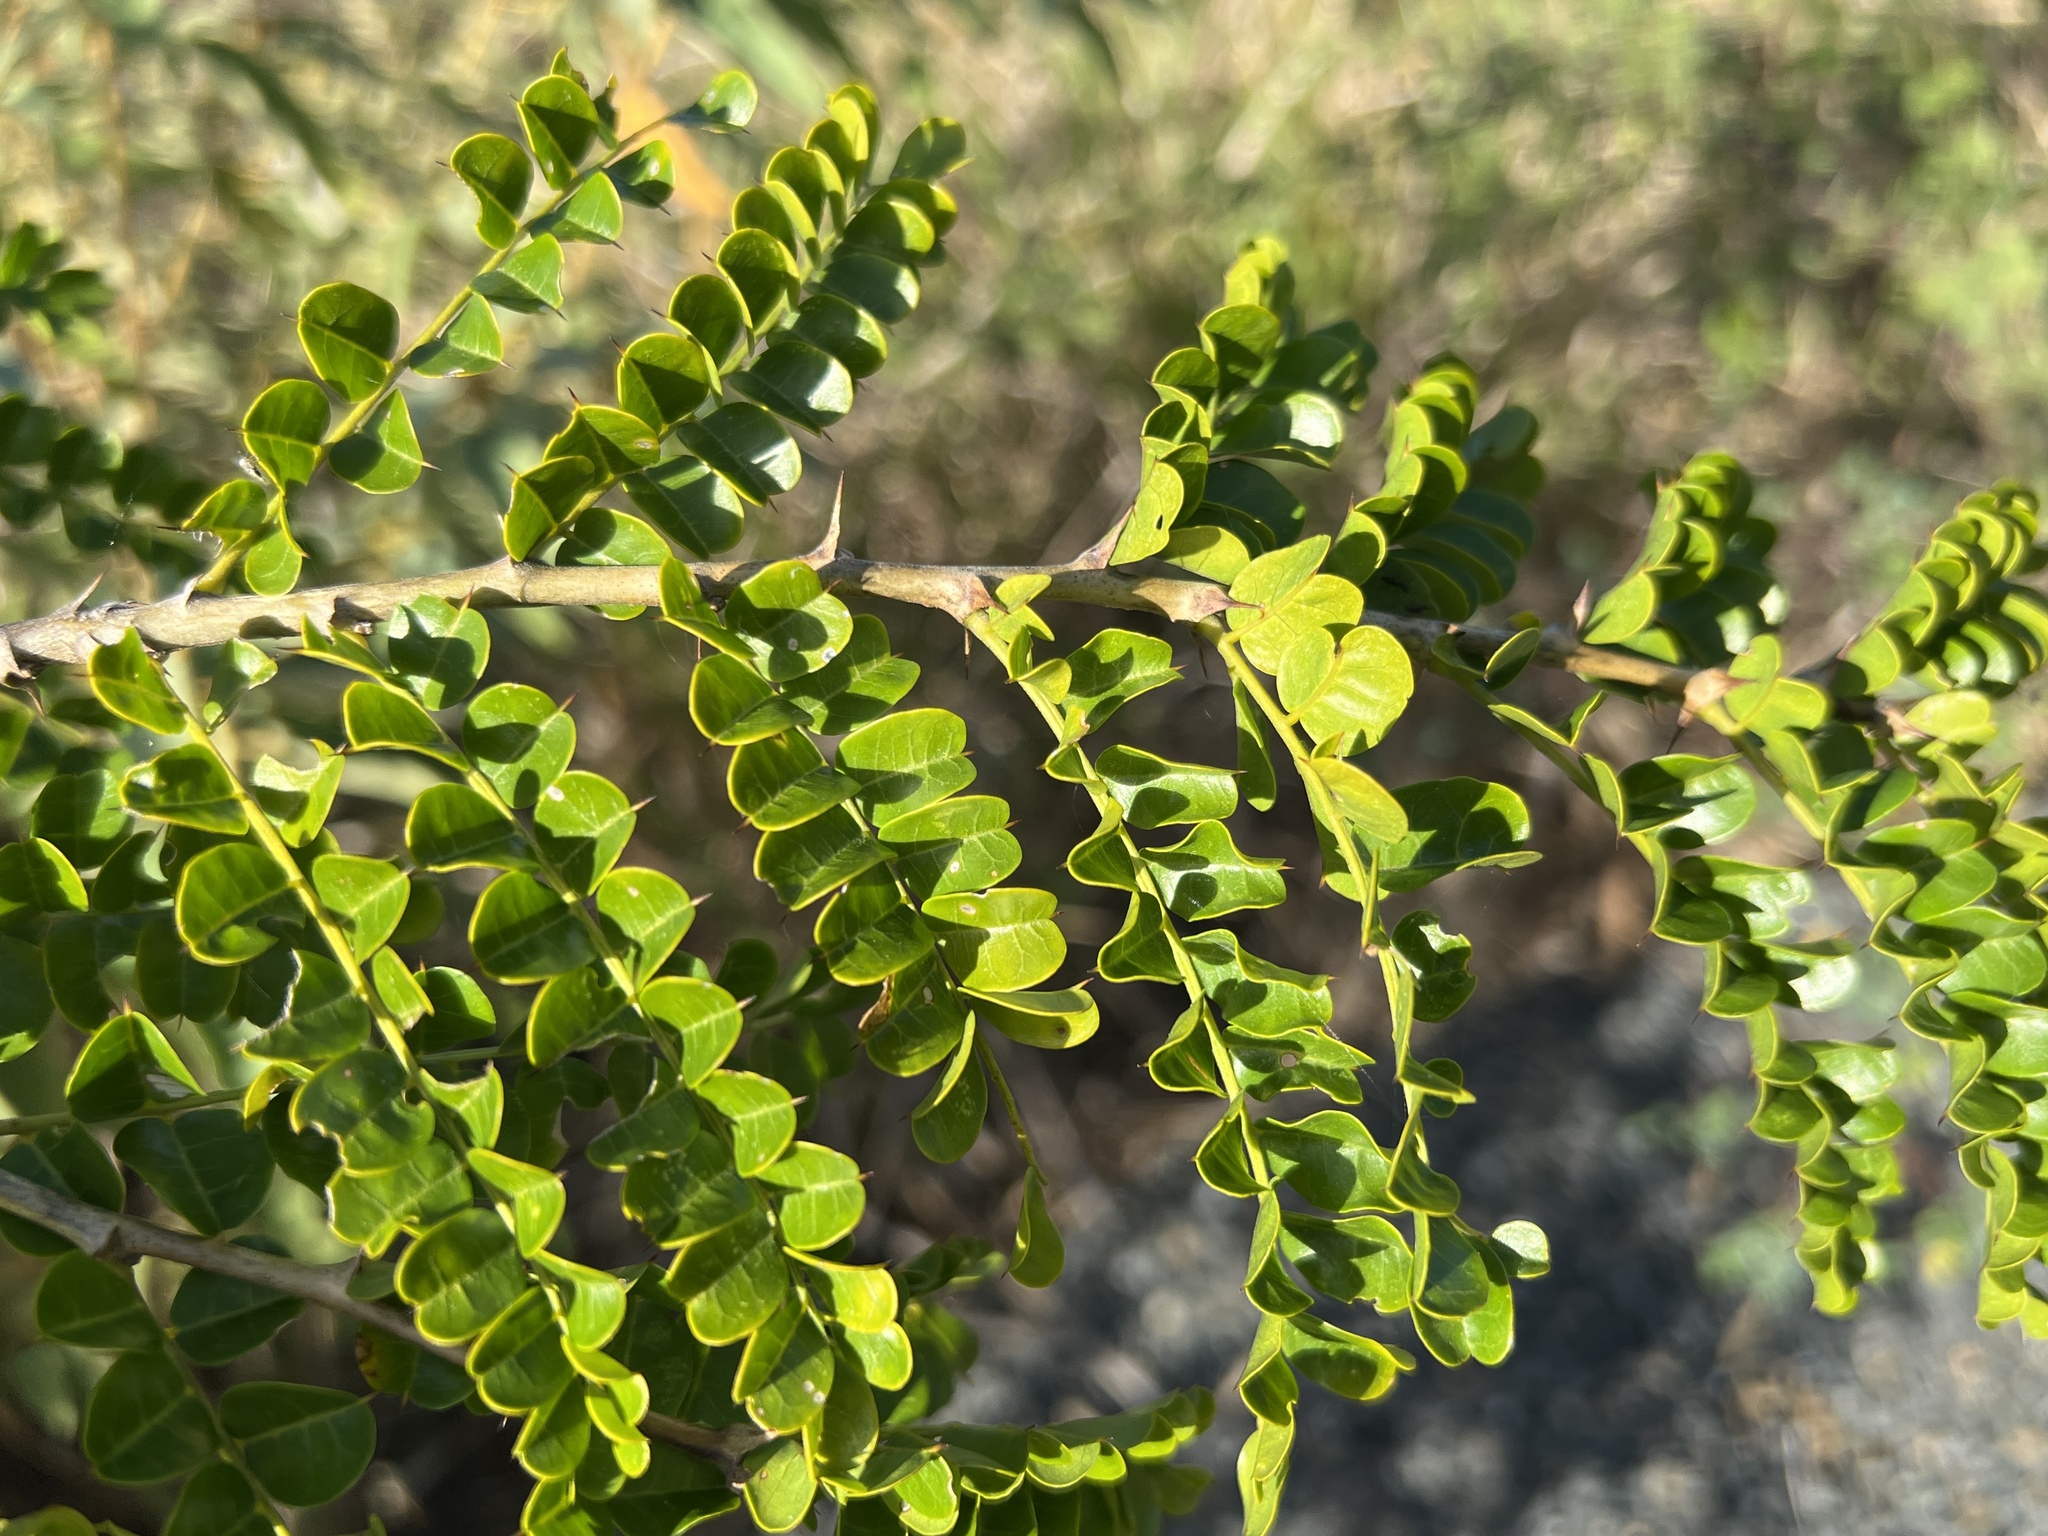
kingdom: Plantae
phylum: Tracheophyta
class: Magnoliopsida
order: Fabales
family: Fabaceae
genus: Pictetia
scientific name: Pictetia aculeata
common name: Fustic
